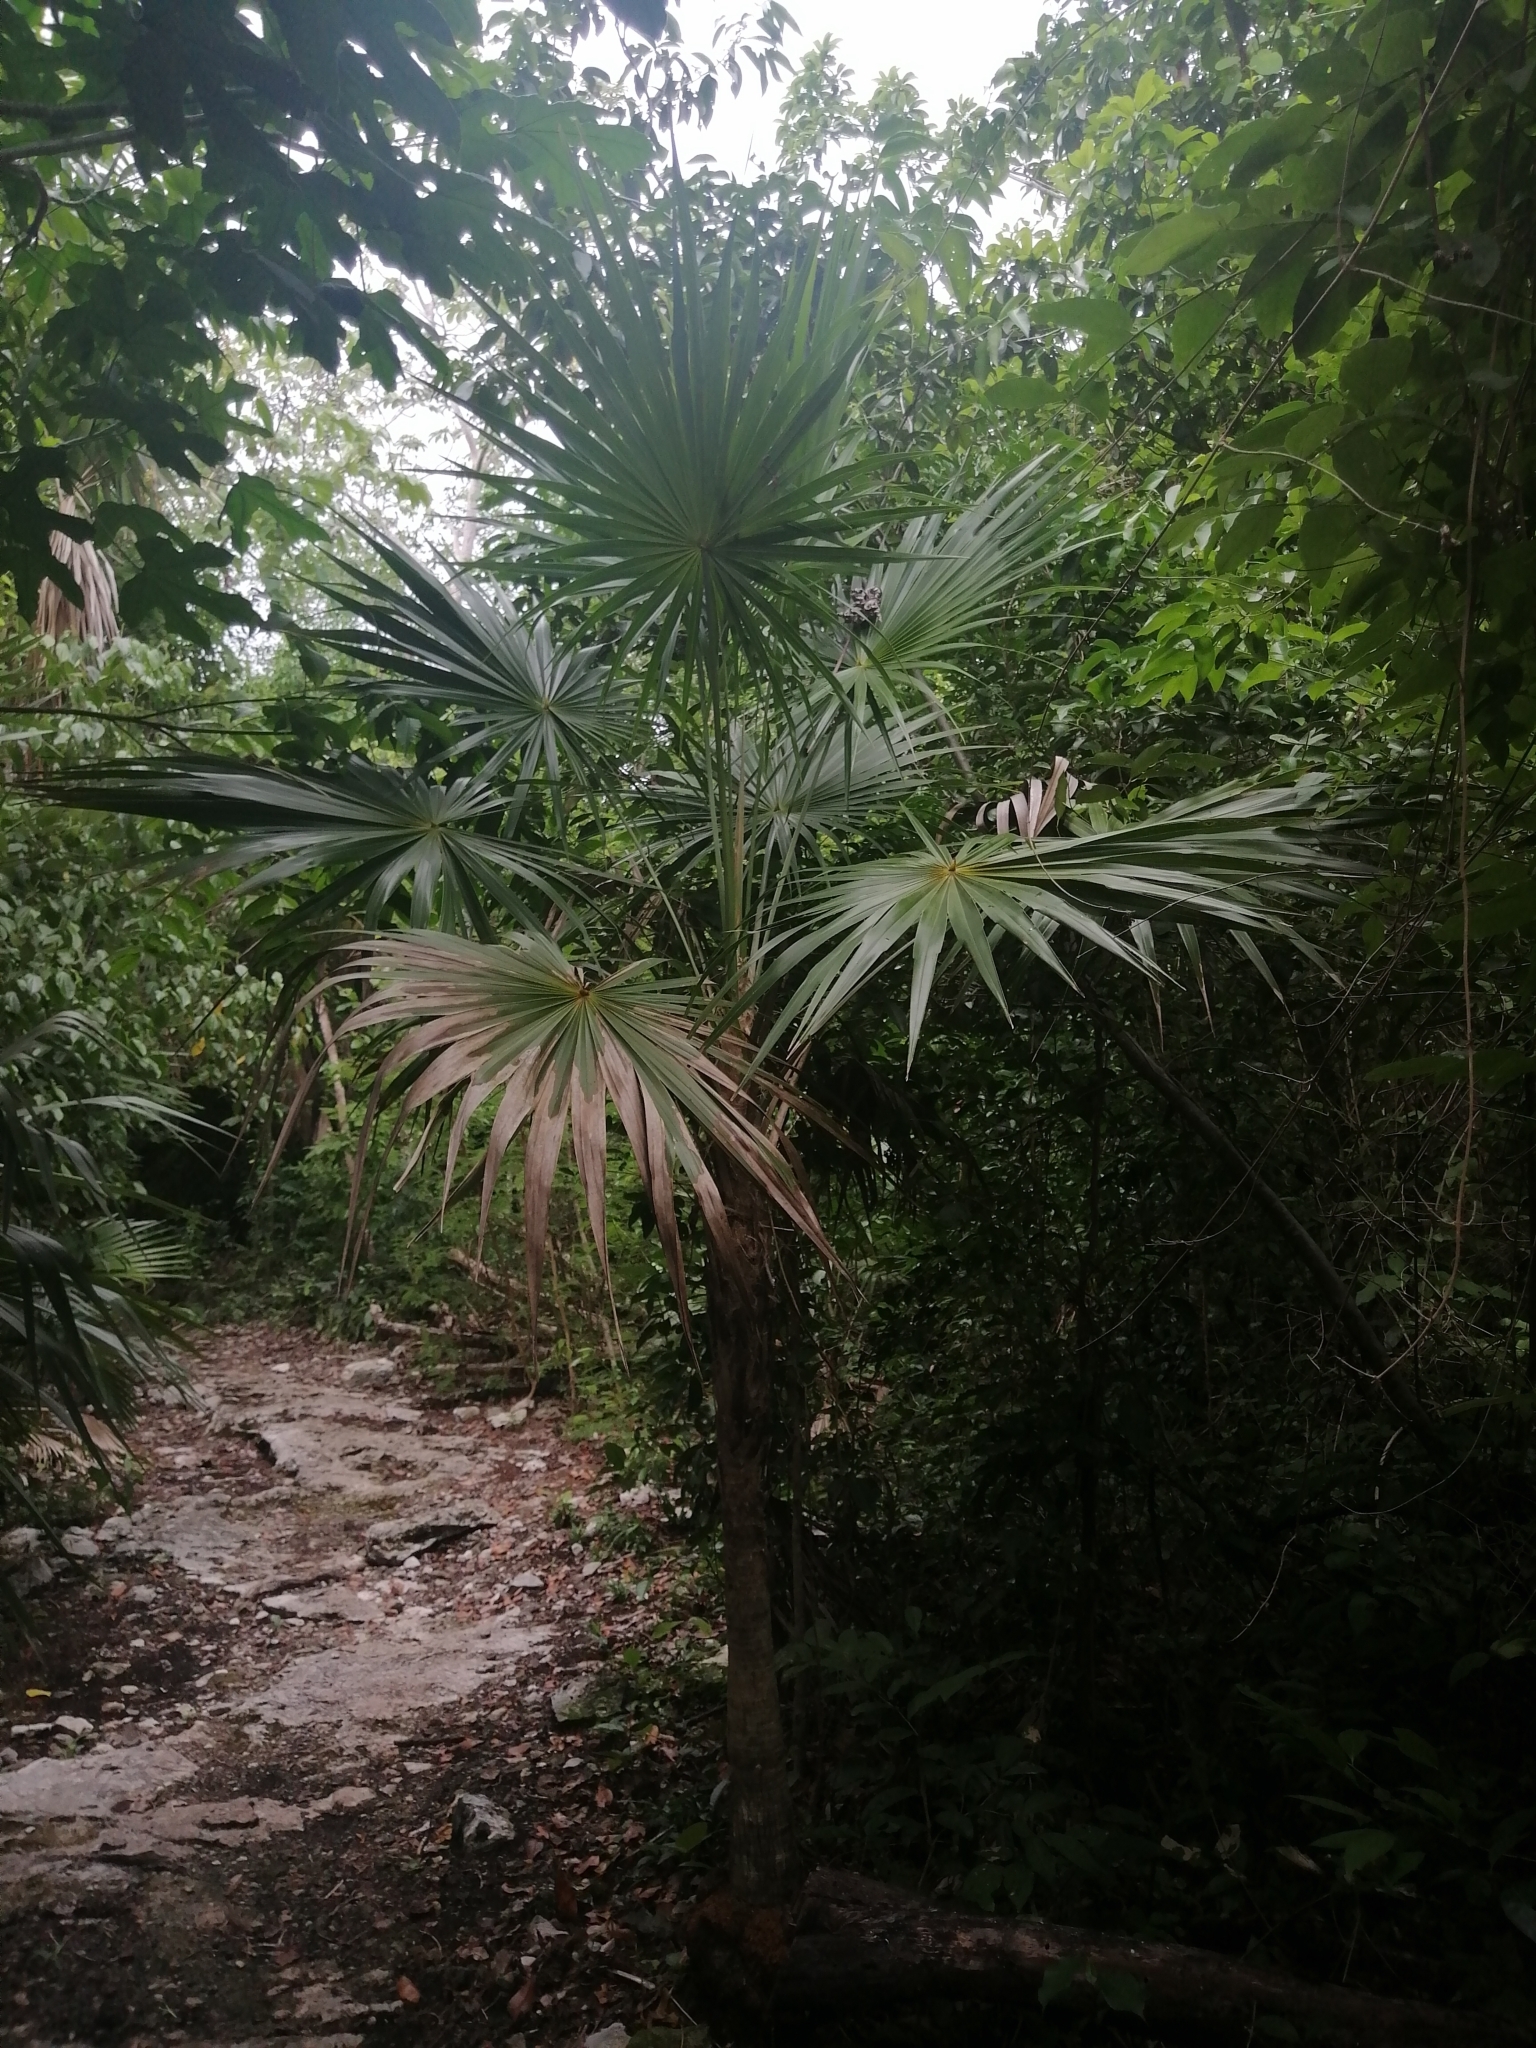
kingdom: Plantae
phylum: Tracheophyta
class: Liliopsida
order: Arecales
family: Arecaceae
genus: Thrinax
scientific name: Thrinax radiata
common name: Florida thatch
